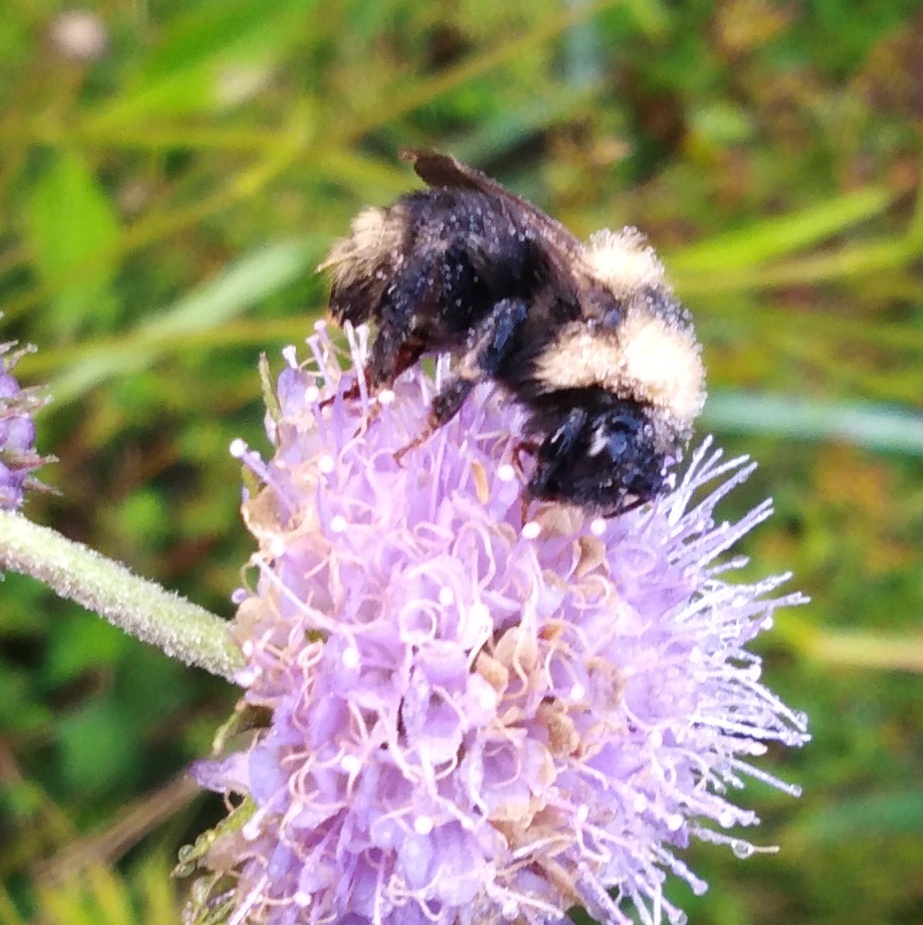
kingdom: Animalia
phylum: Arthropoda
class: Insecta
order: Hymenoptera
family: Apidae
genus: Bombus
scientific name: Bombus campestris
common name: Field cuckoo-bee
